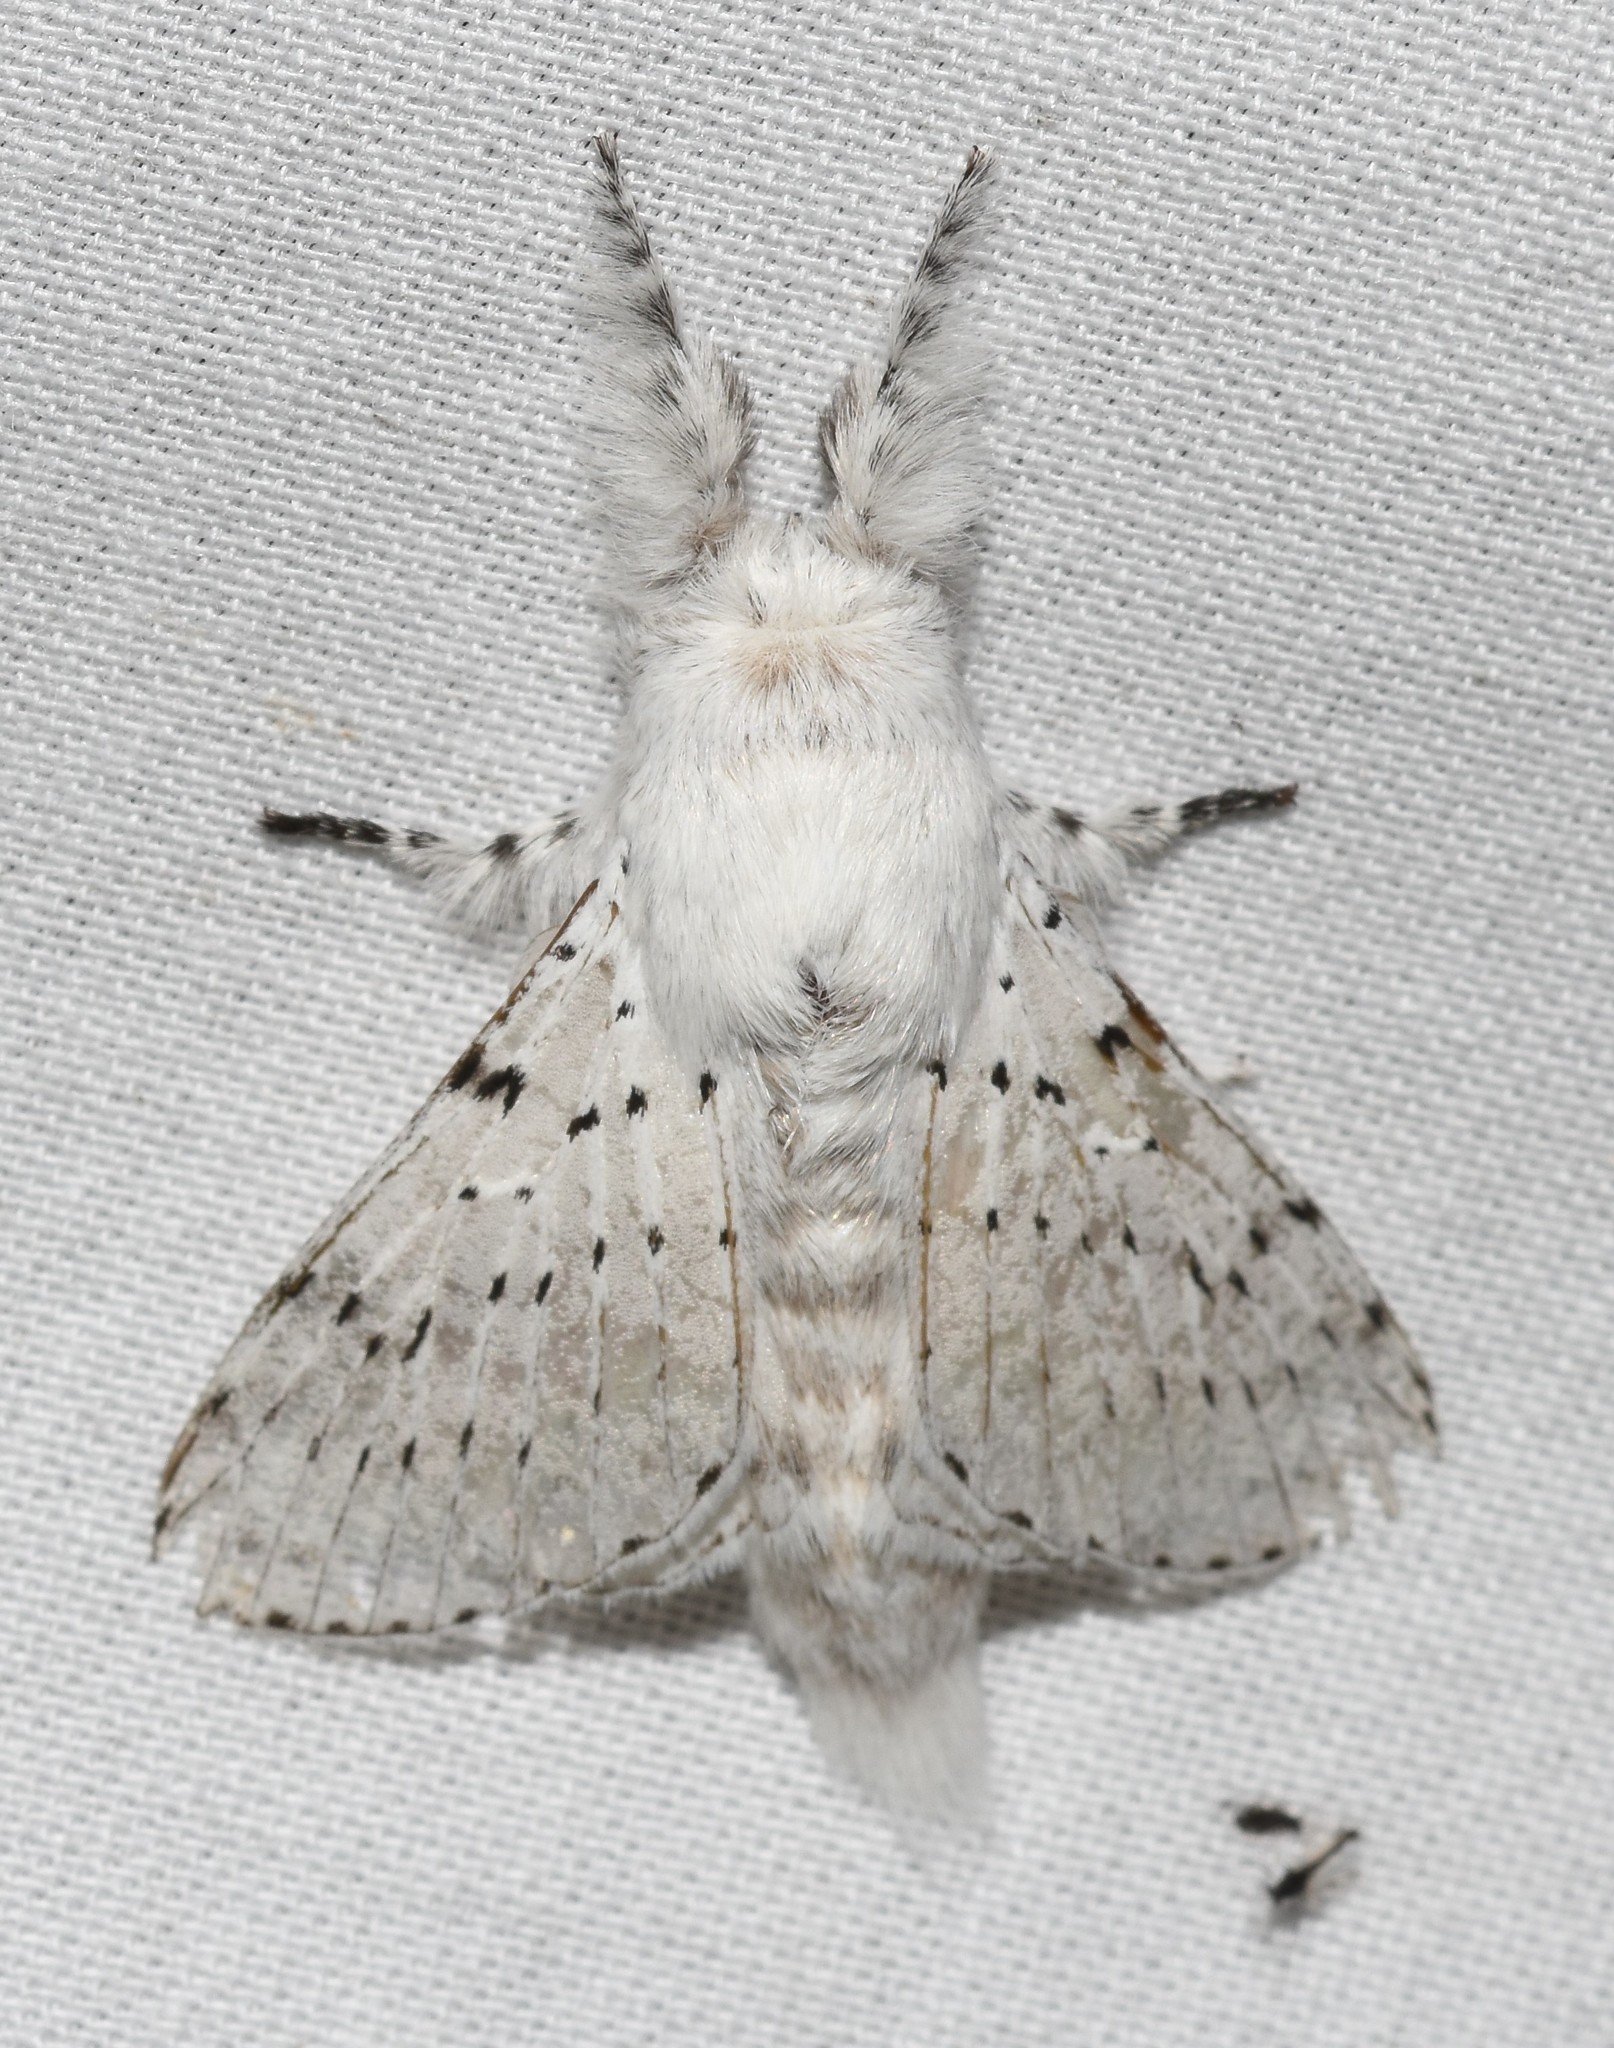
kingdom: Animalia
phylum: Arthropoda
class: Insecta
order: Lepidoptera
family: Lasiocampidae
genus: Artace
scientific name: Artace cribrarius
